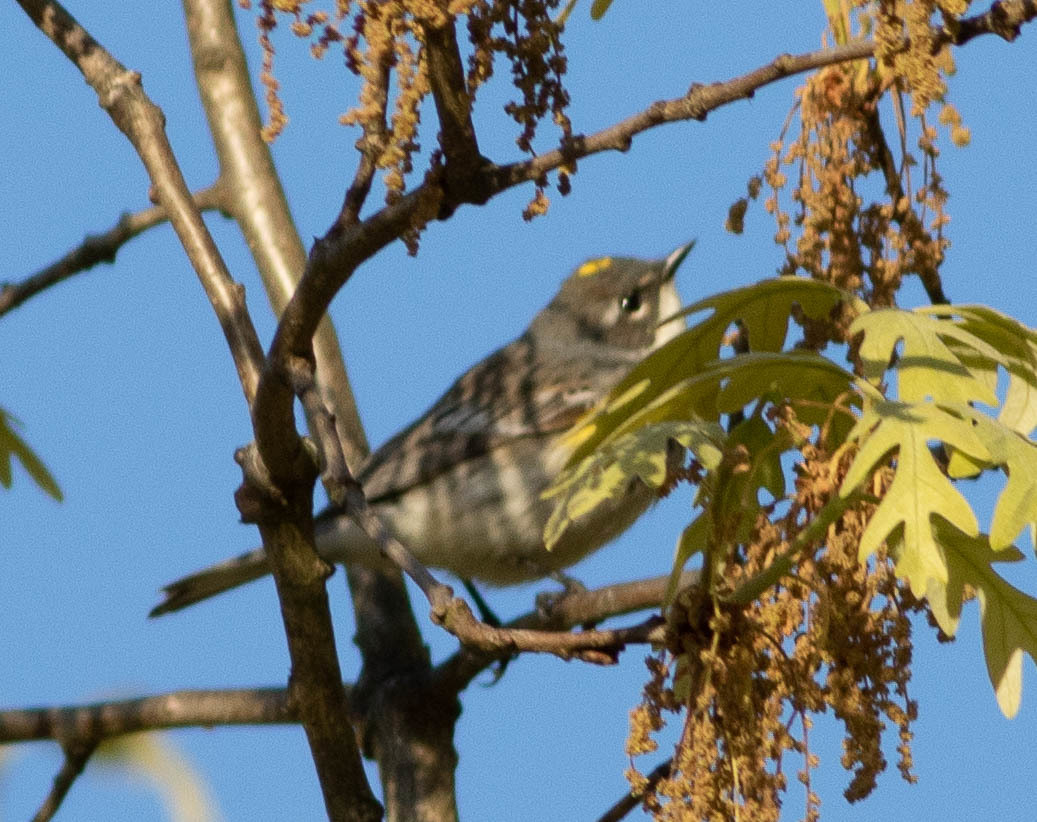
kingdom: Animalia
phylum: Chordata
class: Aves
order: Passeriformes
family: Parulidae
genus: Setophaga
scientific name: Setophaga coronata
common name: Myrtle warbler
